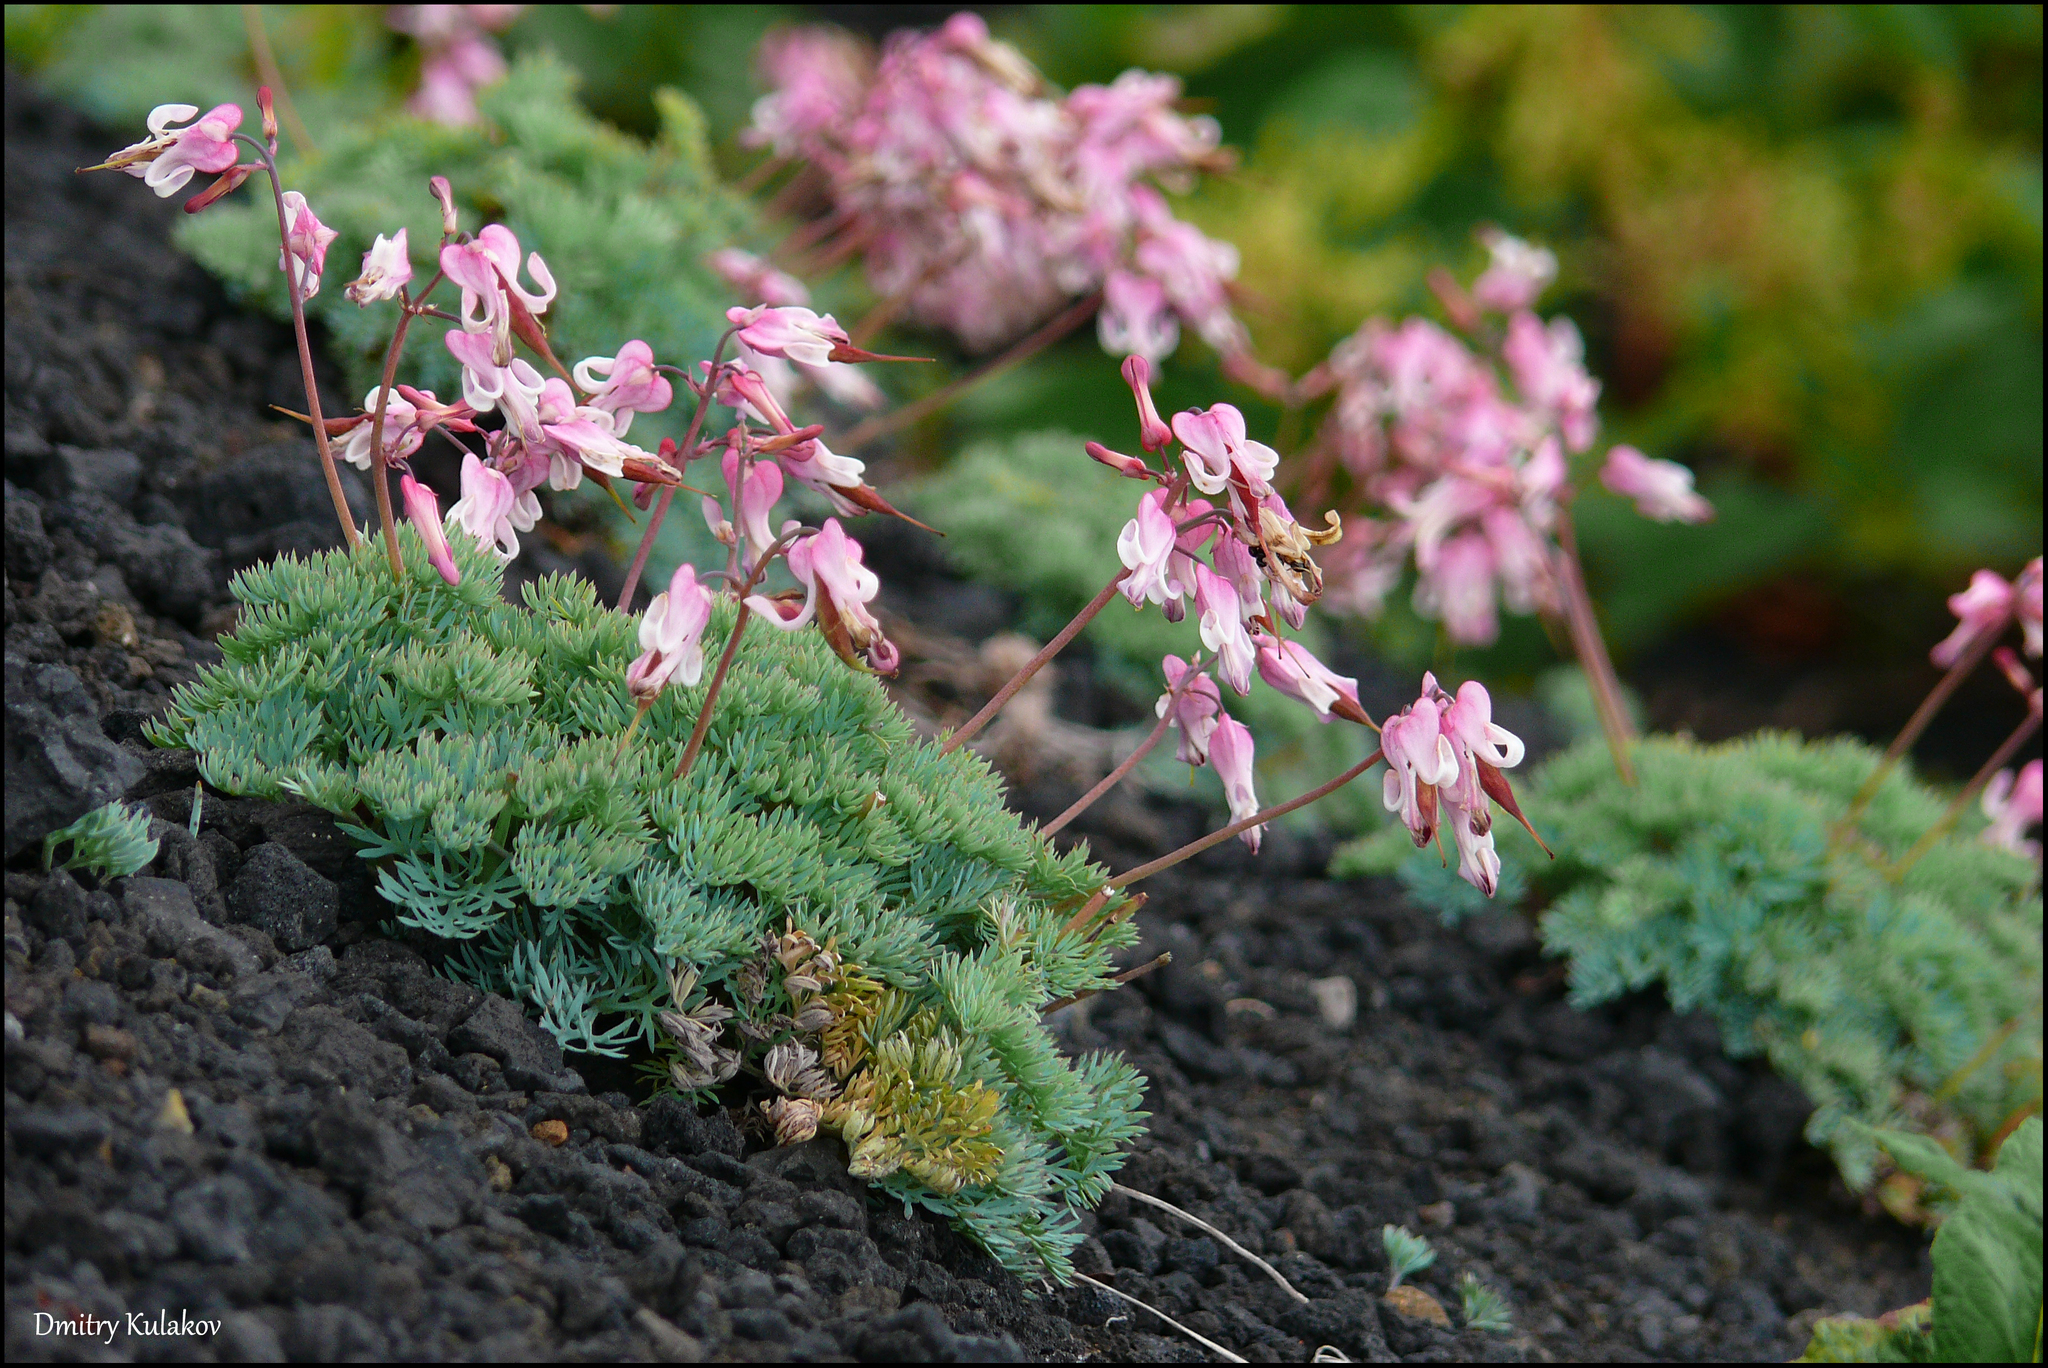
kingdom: Plantae
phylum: Tracheophyta
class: Magnoliopsida
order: Ranunculales
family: Papaveraceae
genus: Dicentra
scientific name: Dicentra peregrina
